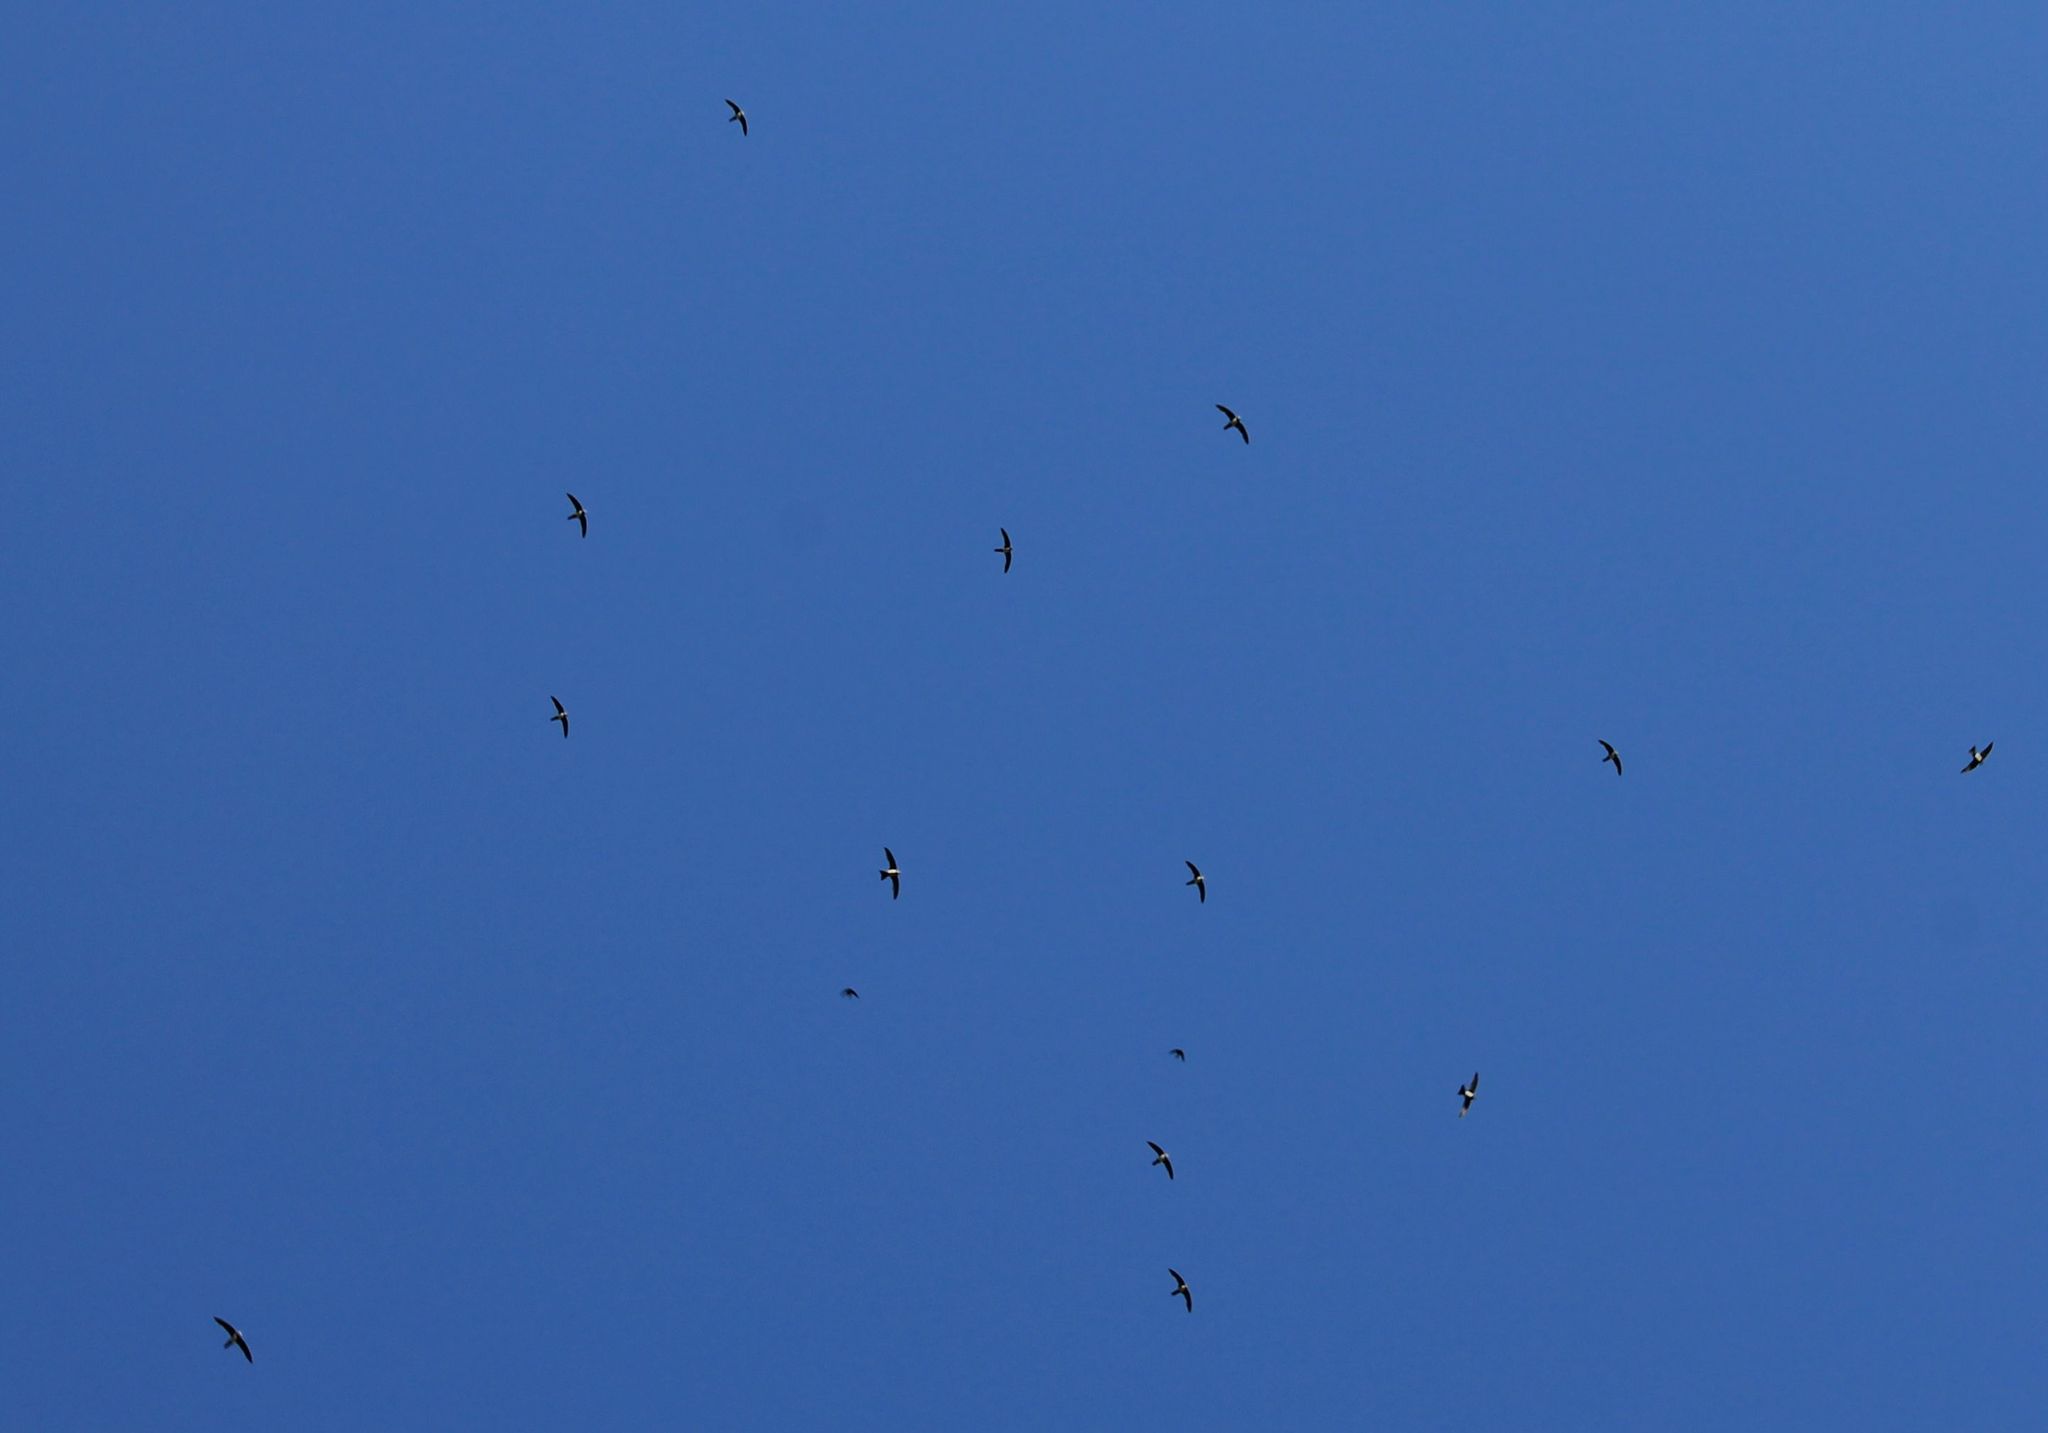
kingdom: Animalia
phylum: Chordata
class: Aves
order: Apodiformes
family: Apodidae
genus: Tachymarptis
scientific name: Tachymarptis melba
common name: Alpine swift
